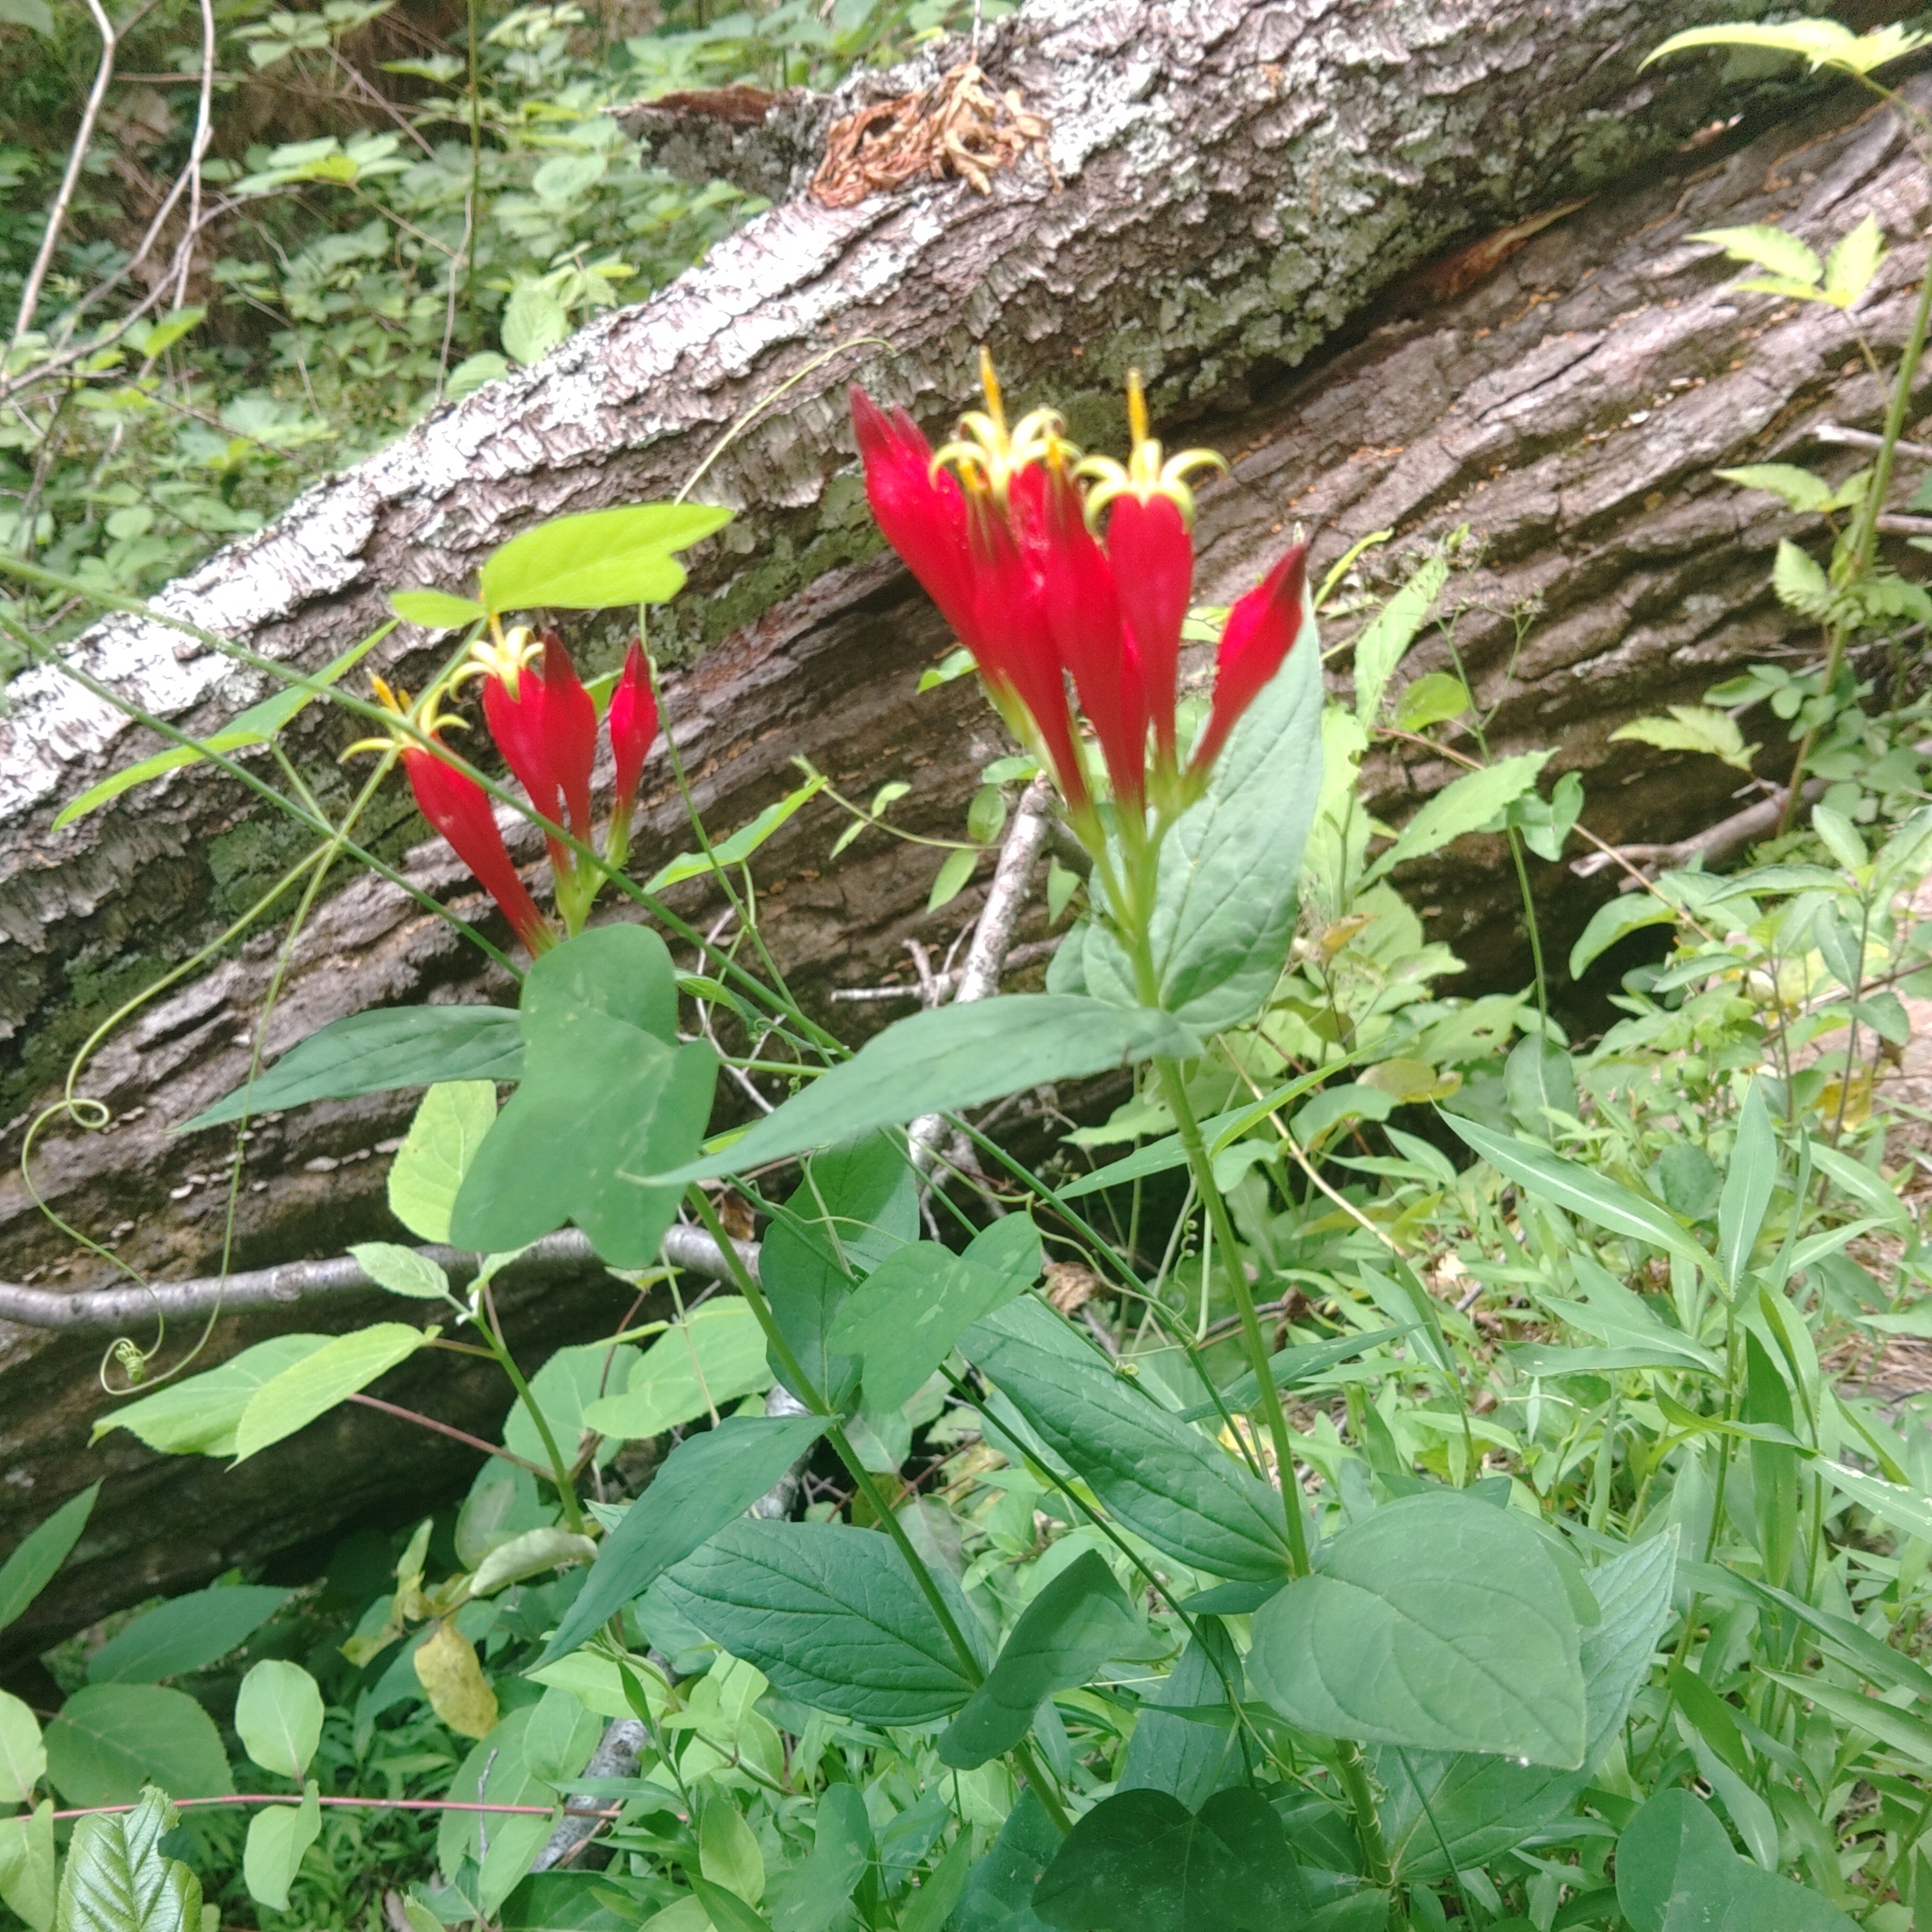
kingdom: Plantae
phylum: Tracheophyta
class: Magnoliopsida
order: Gentianales
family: Loganiaceae
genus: Spigelia
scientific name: Spigelia marilandica
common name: Indian-pink
